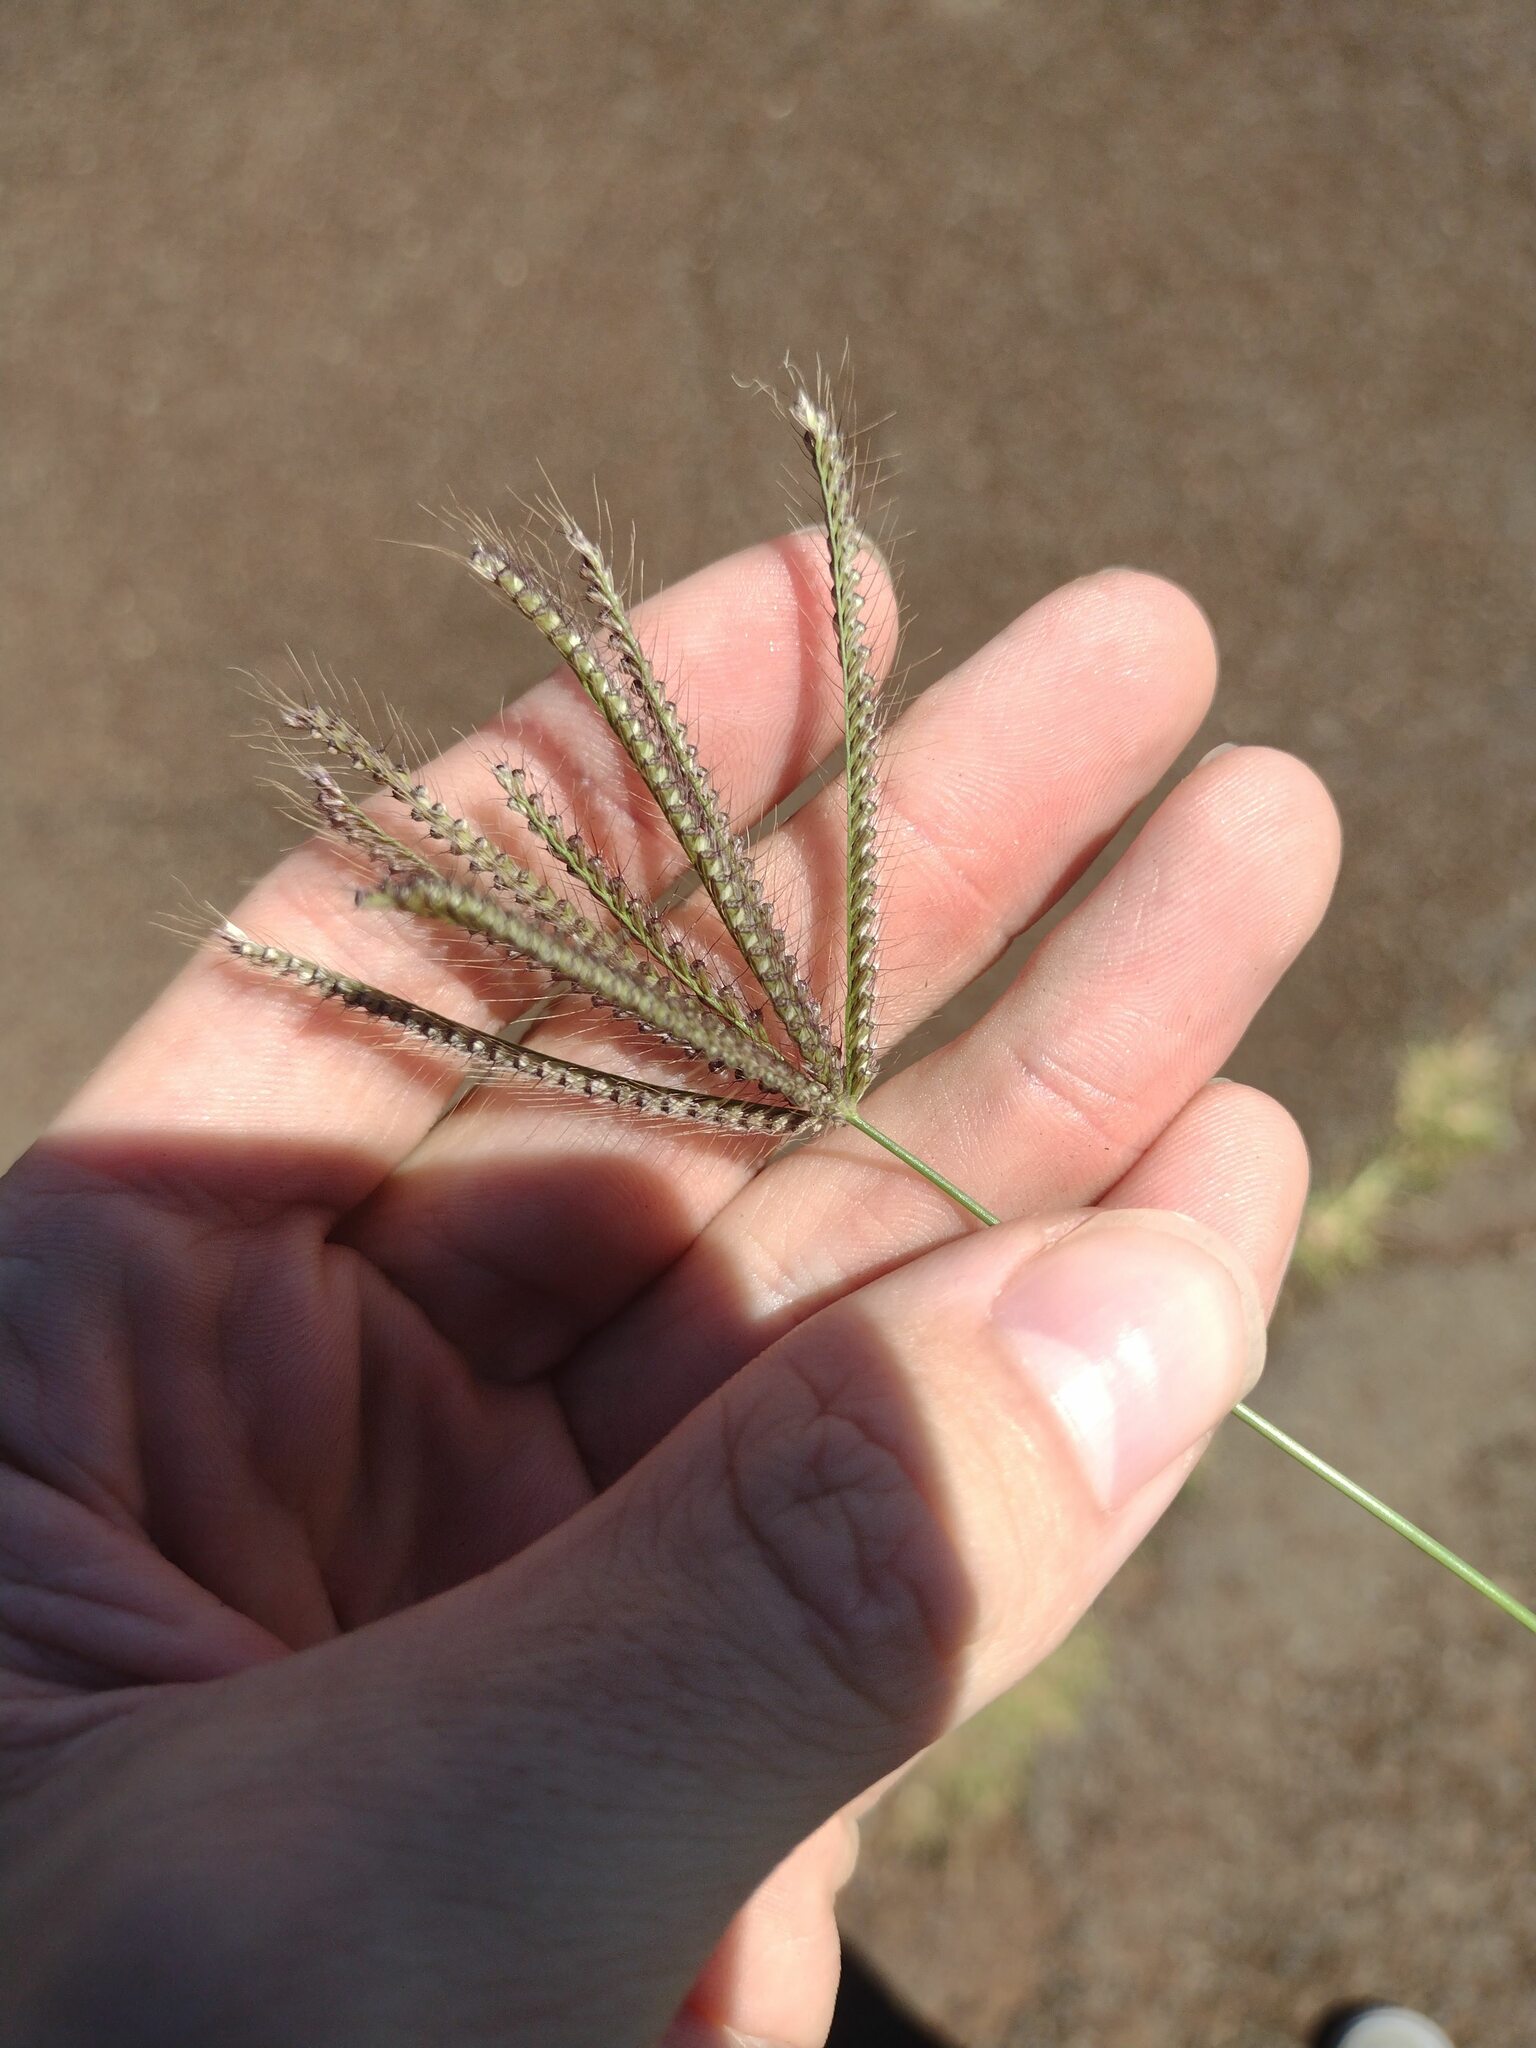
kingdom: Plantae
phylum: Tracheophyta
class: Liliopsida
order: Poales
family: Poaceae
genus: Chloris
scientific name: Chloris barbata
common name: Swollen fingergrass
